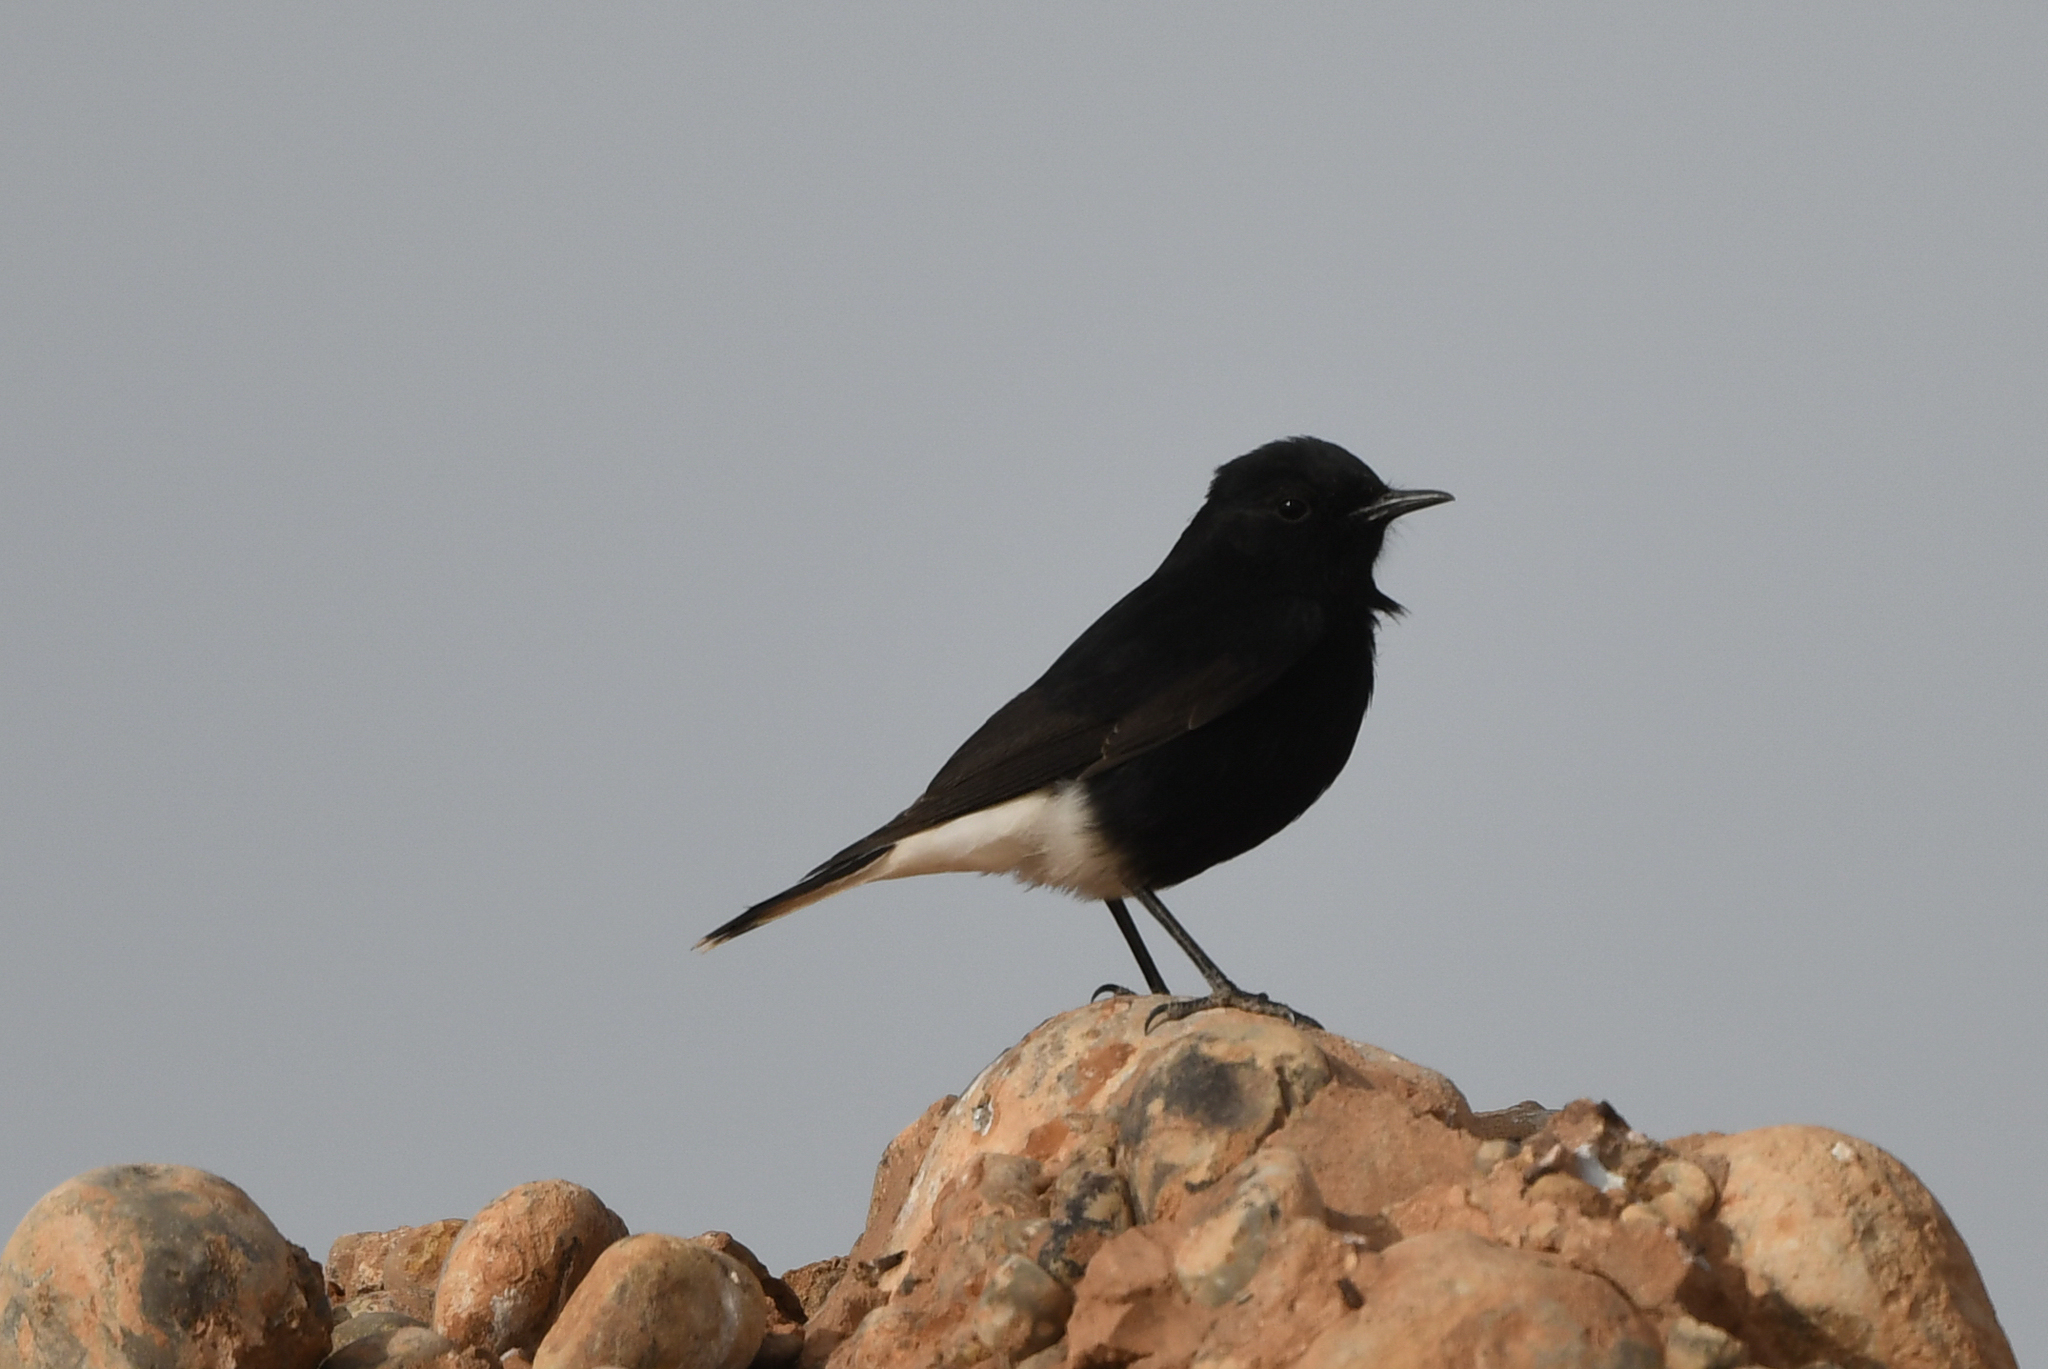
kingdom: Animalia
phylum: Chordata
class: Aves
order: Passeriformes
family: Muscicapidae
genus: Oenanthe
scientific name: Oenanthe leucopyga
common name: White-crowned wheatear
